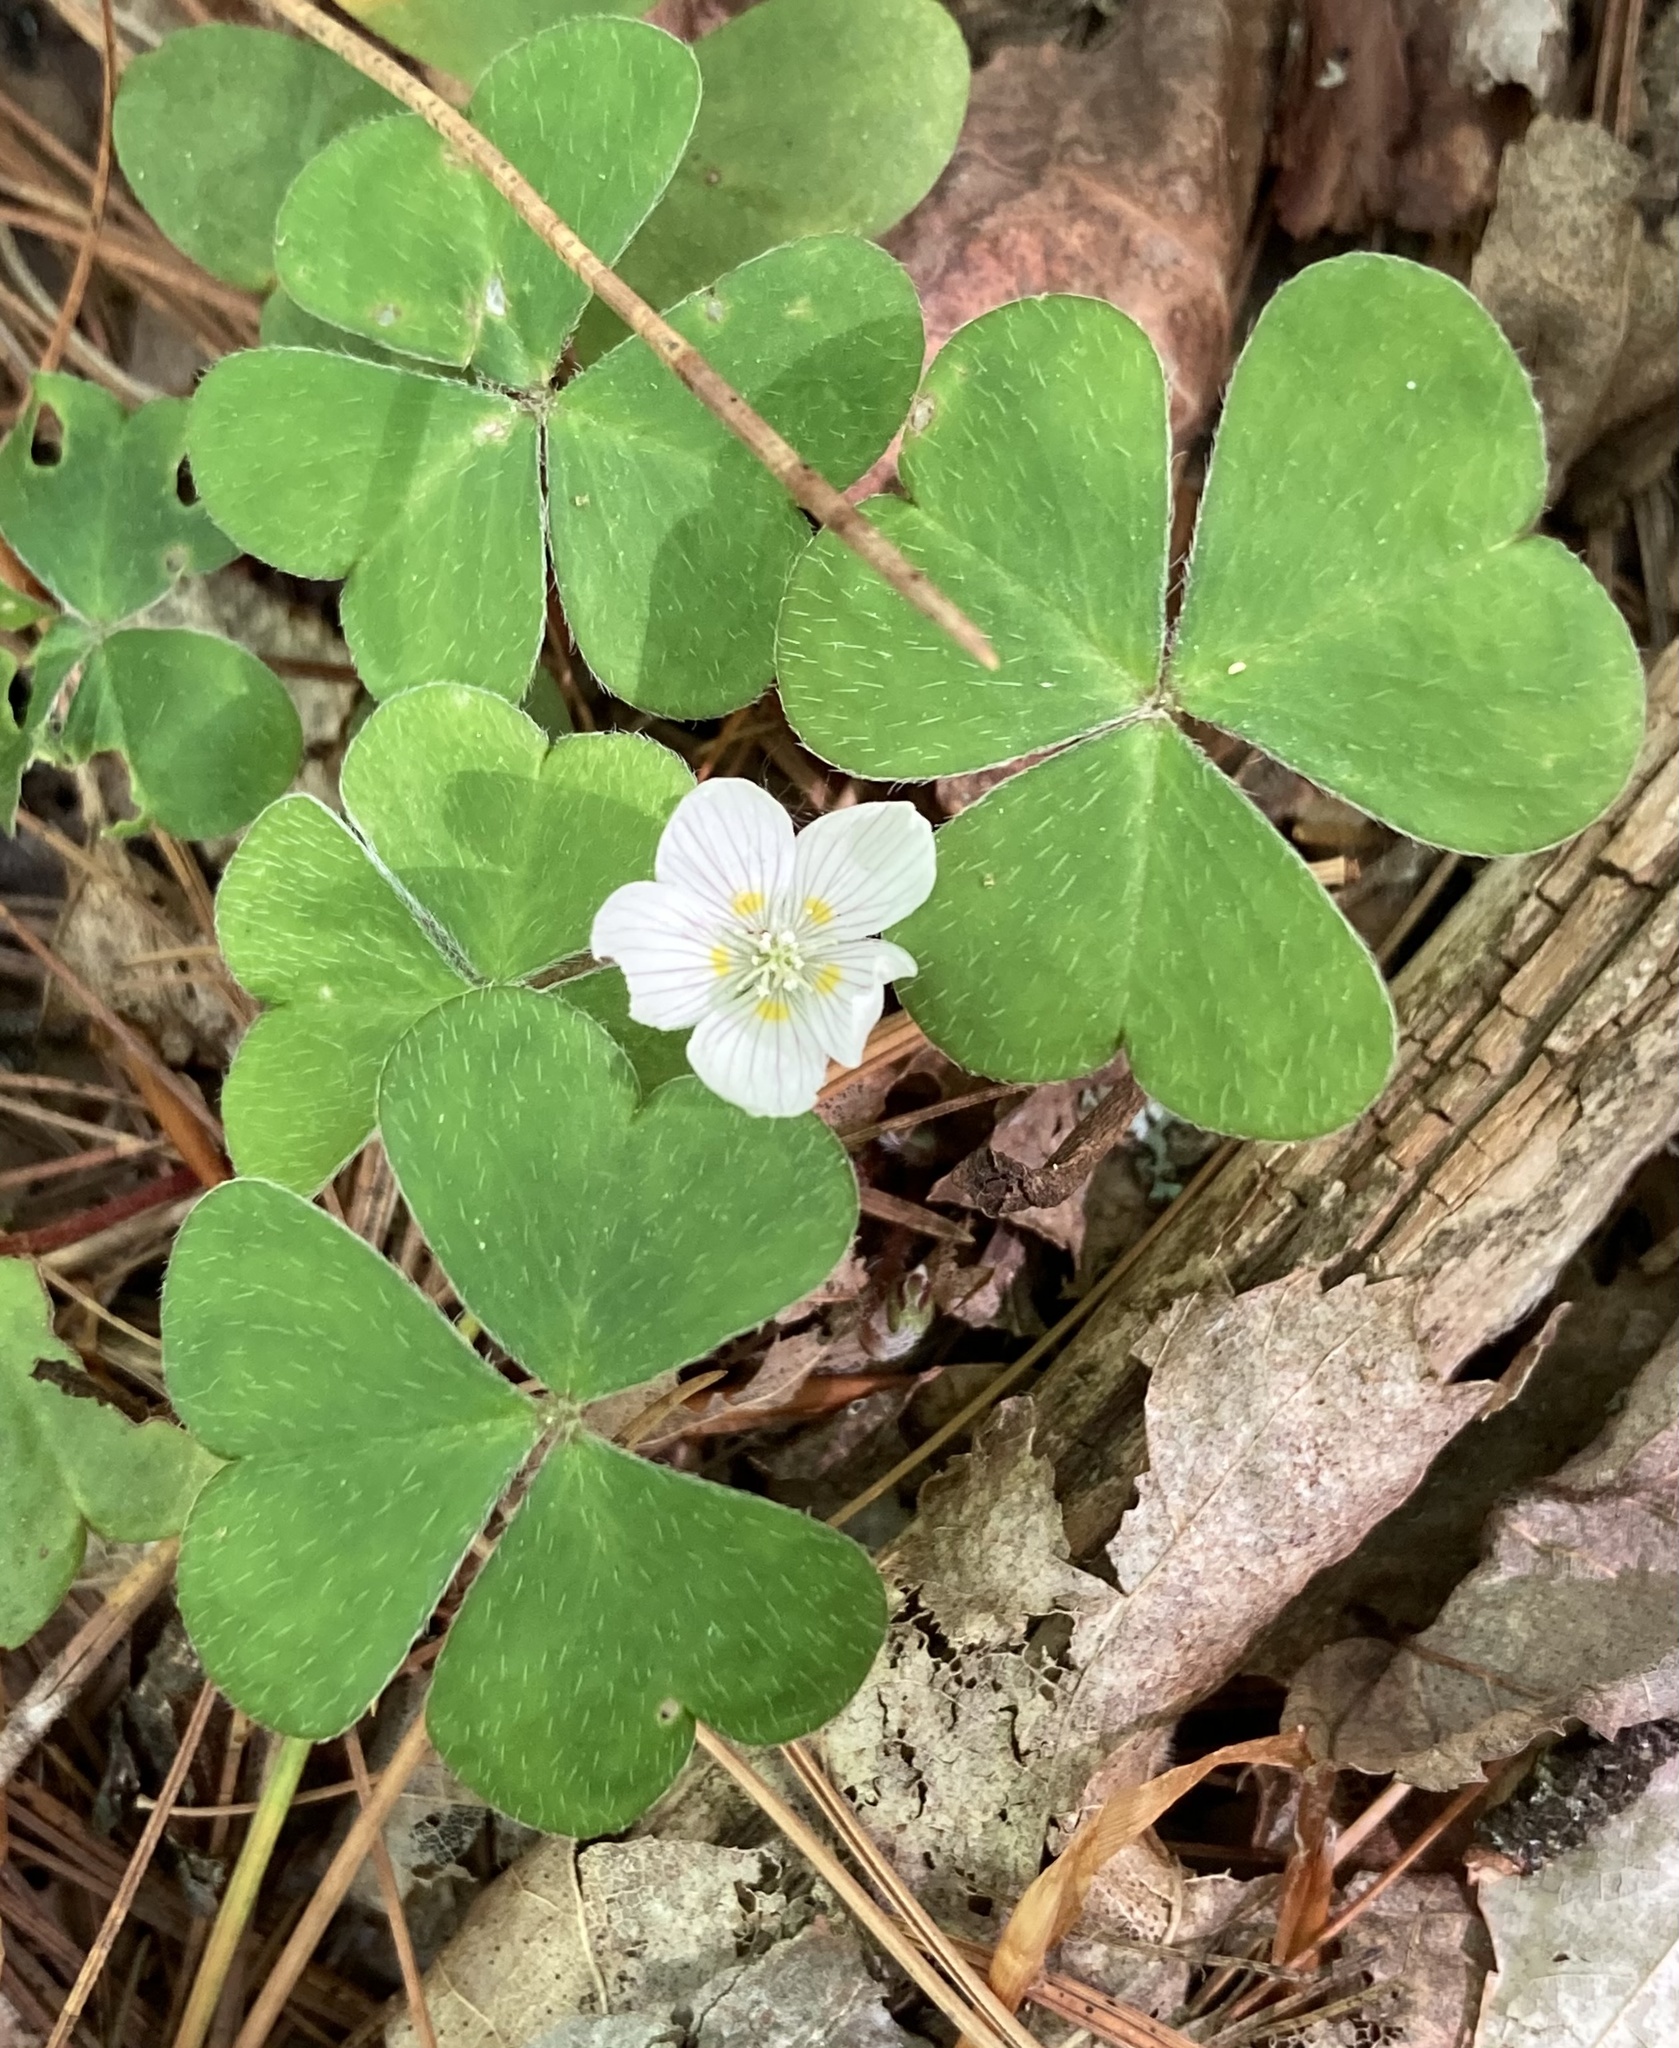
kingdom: Plantae
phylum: Tracheophyta
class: Magnoliopsida
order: Oxalidales
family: Oxalidaceae
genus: Oxalis
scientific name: Oxalis montana
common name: American wood-sorrel
